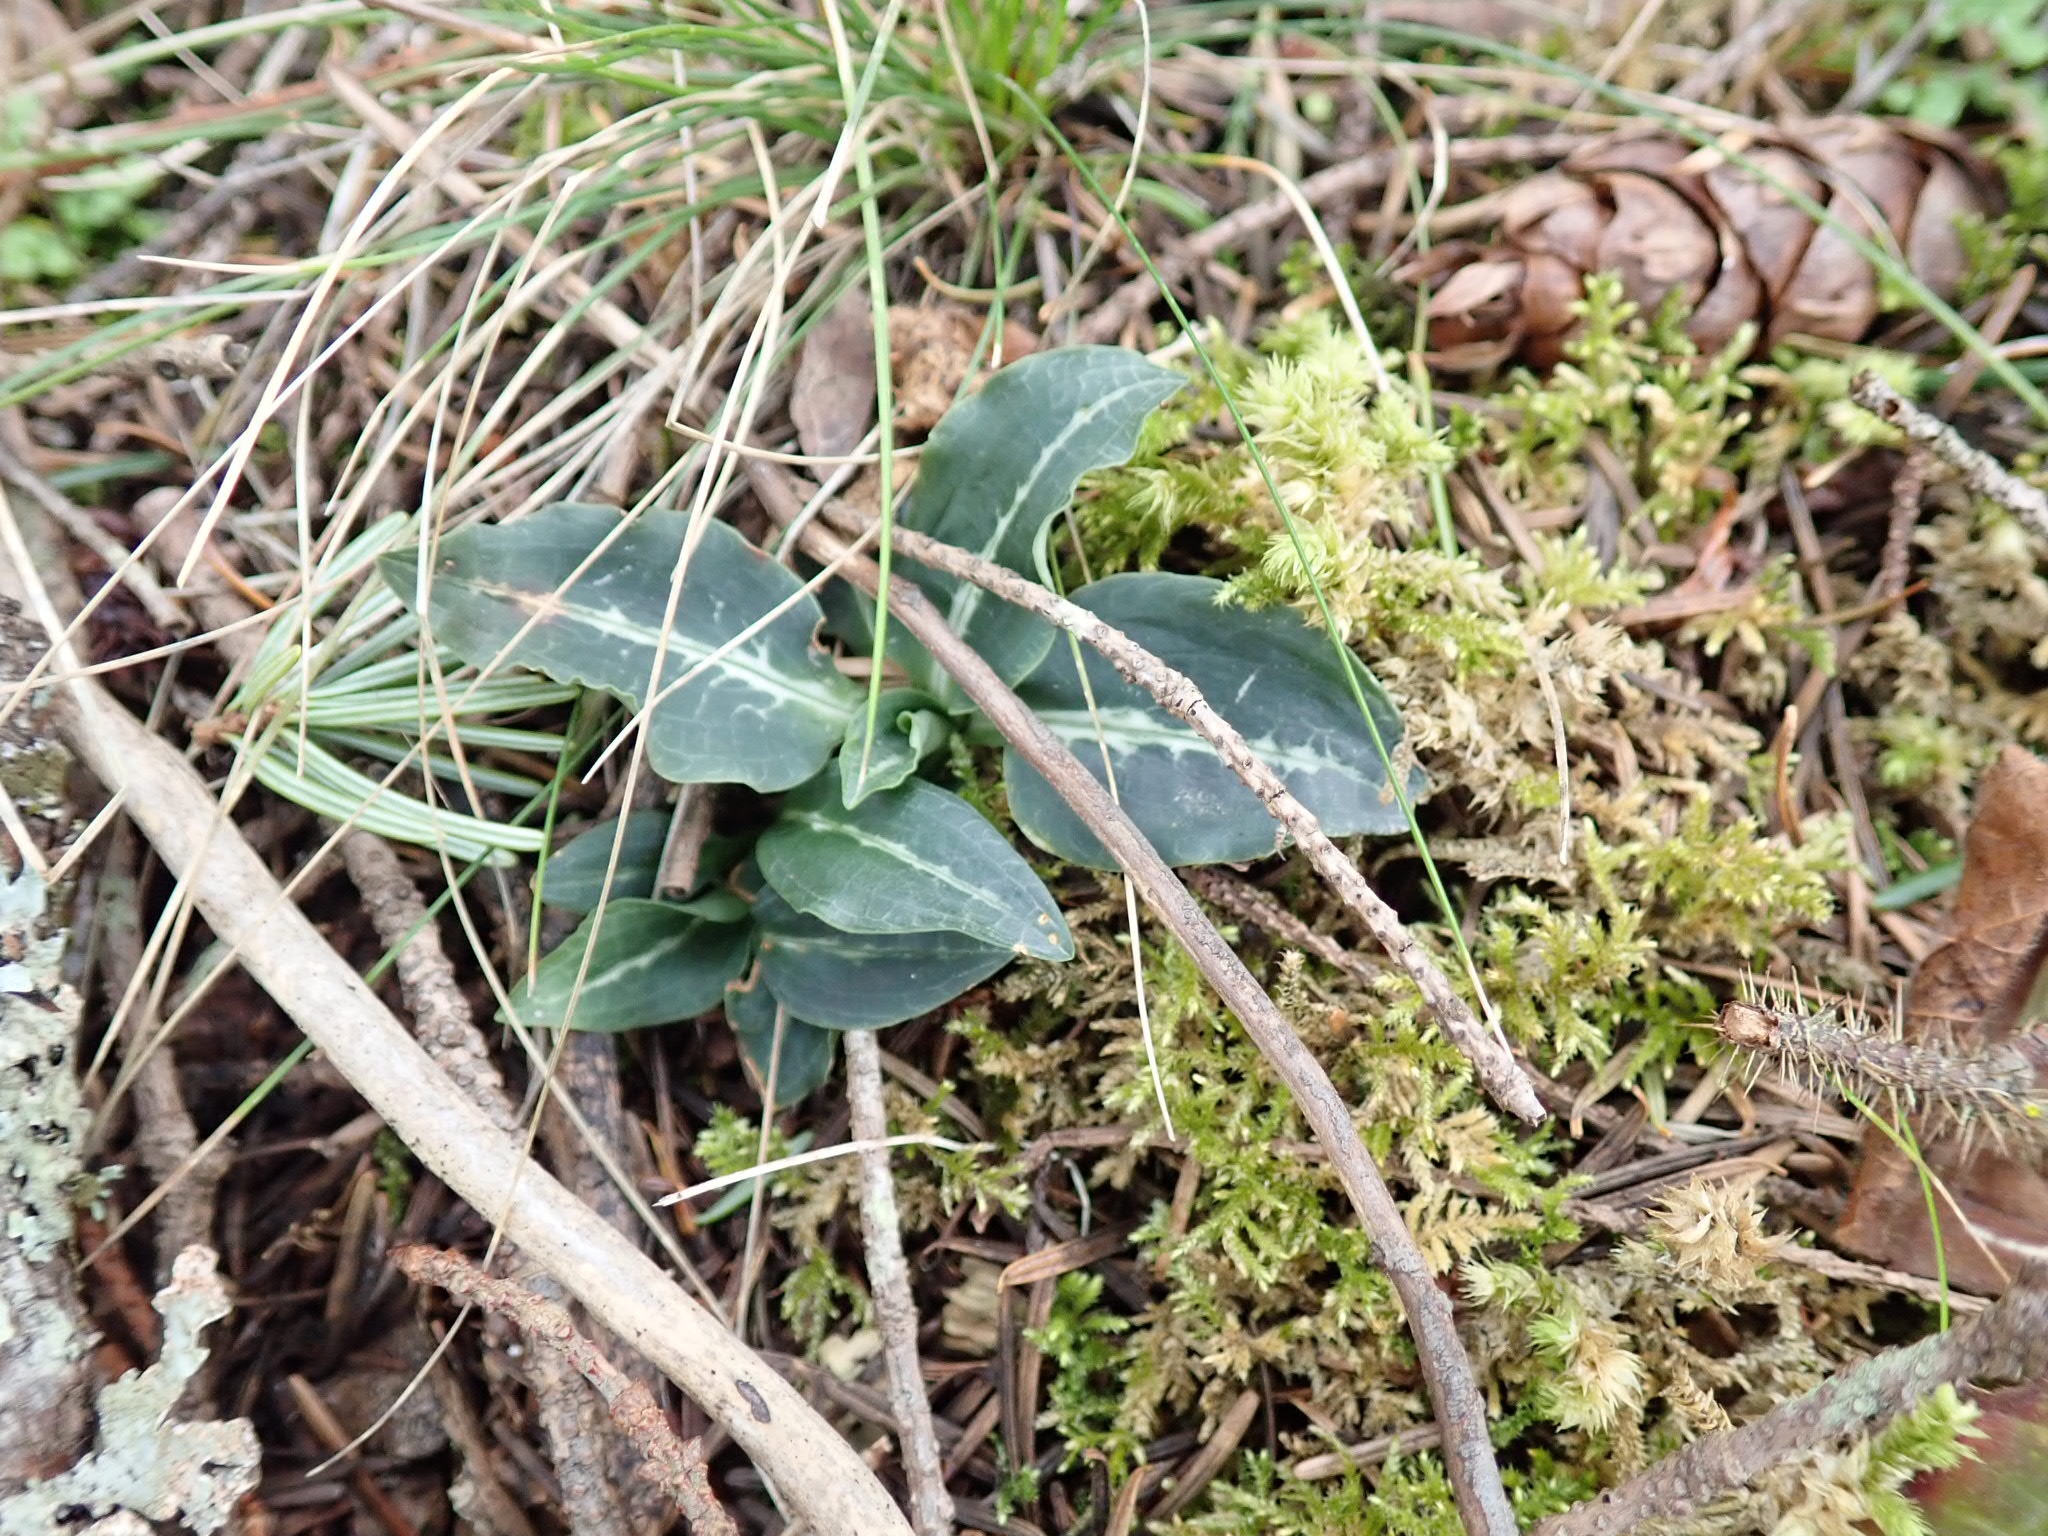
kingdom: Plantae
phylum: Tracheophyta
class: Liliopsida
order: Asparagales
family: Orchidaceae
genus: Goodyera
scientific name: Goodyera oblongifolia
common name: Giant rattlesnake-plantain
